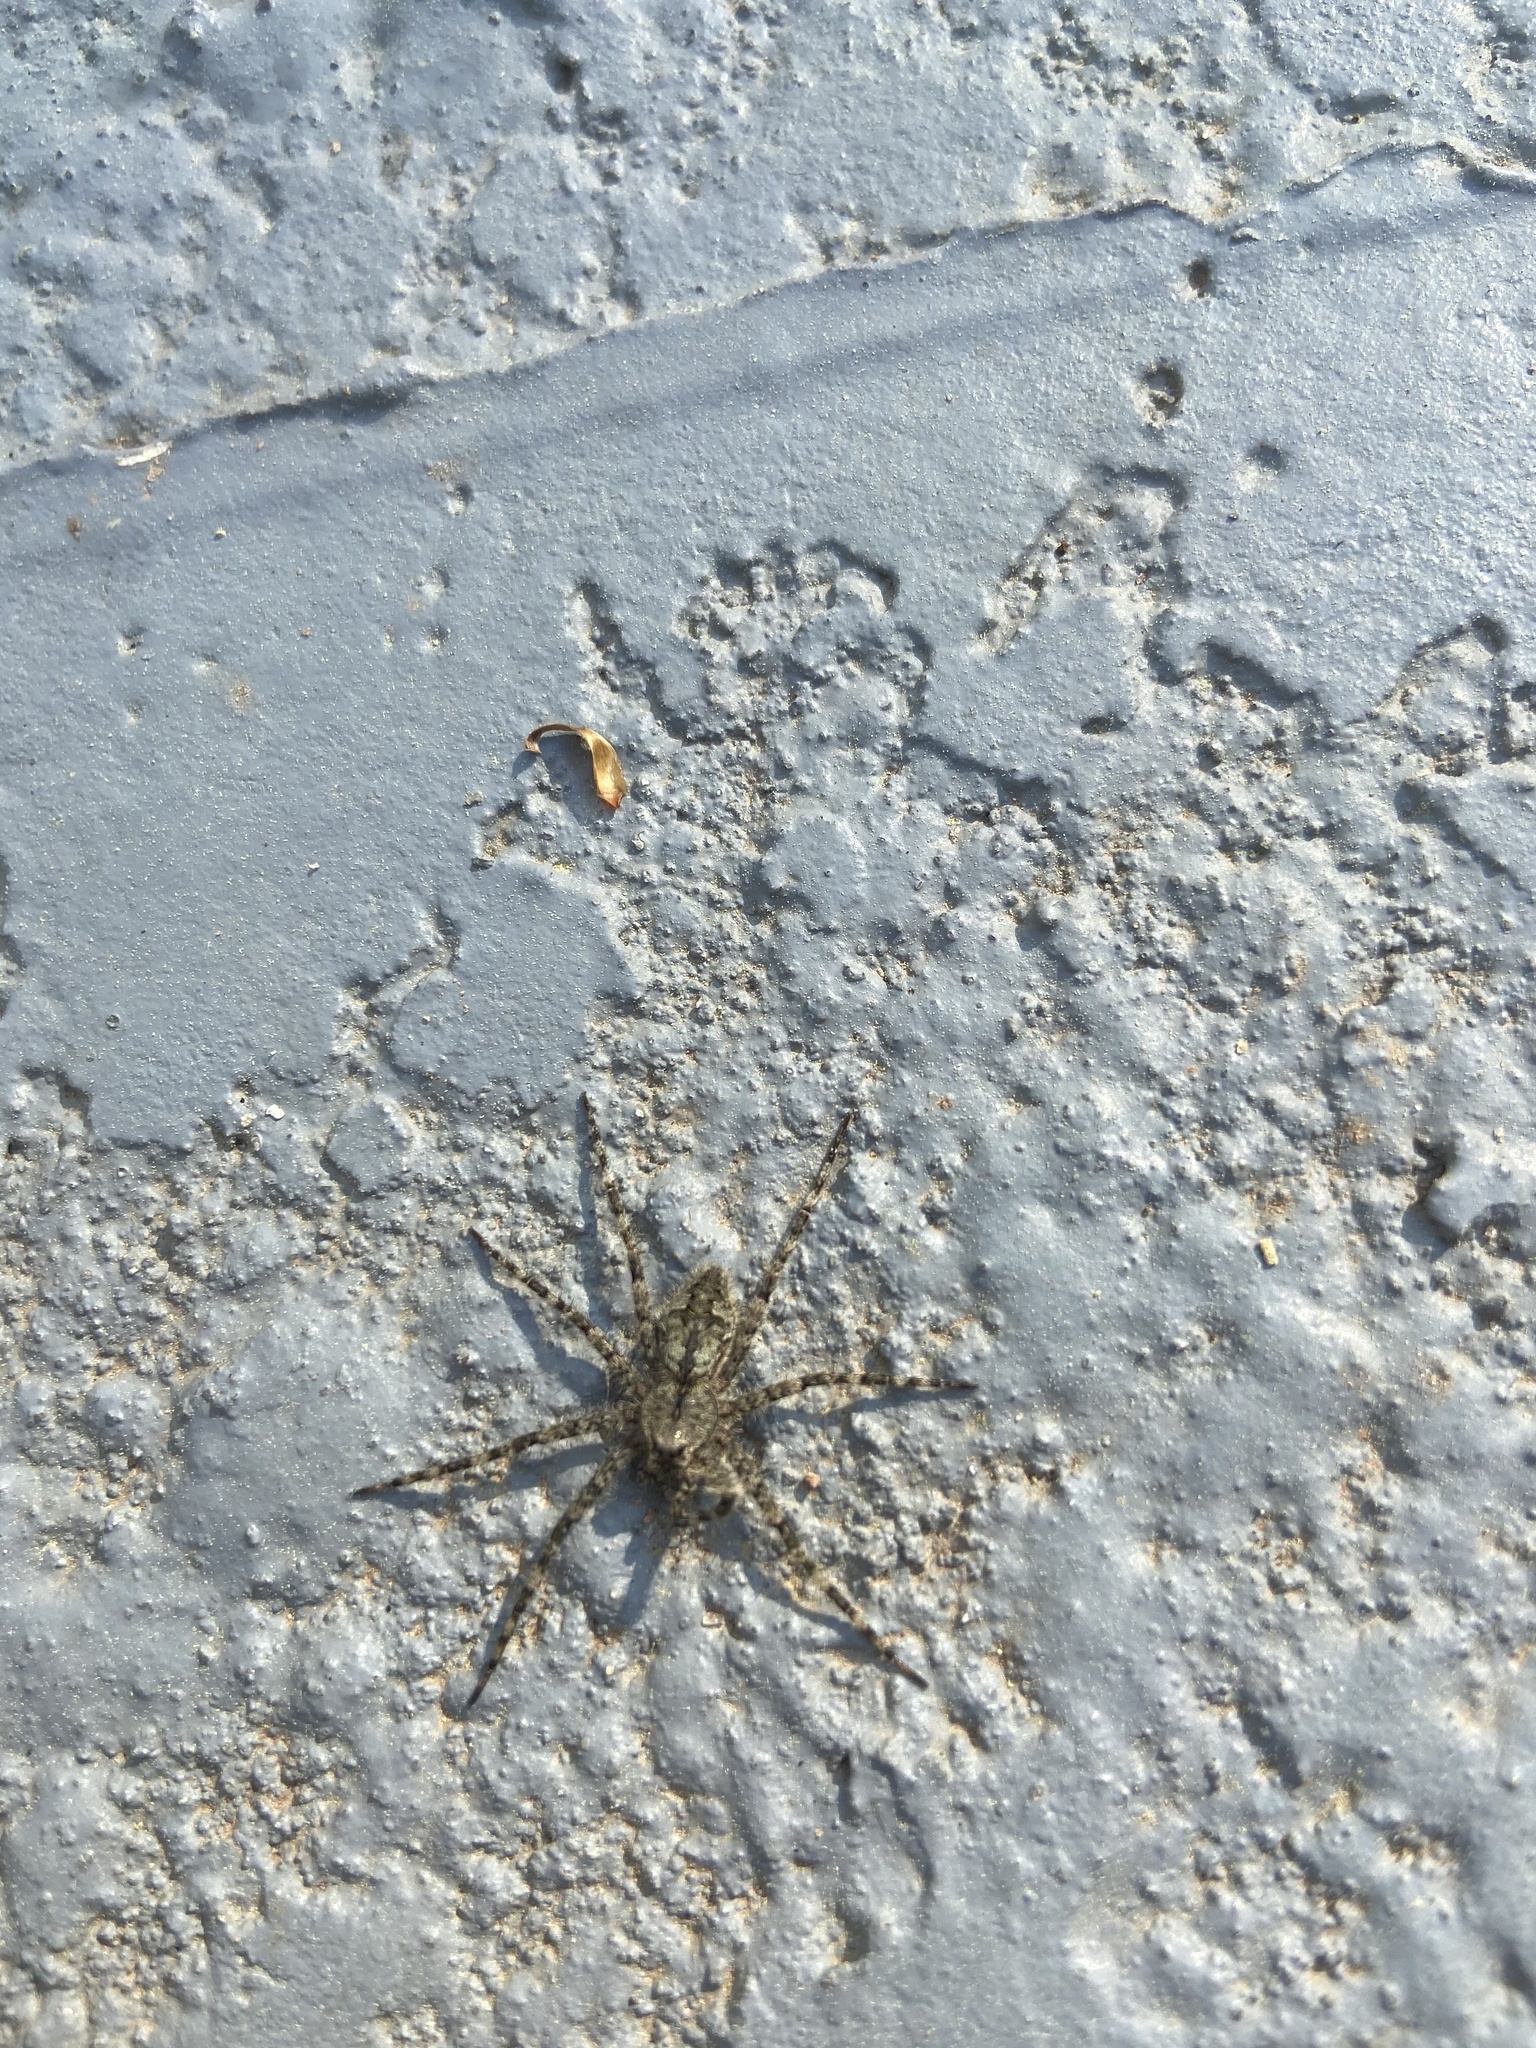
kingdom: Animalia
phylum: Arthropoda
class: Arachnida
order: Araneae
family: Pisauridae
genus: Dolomedes
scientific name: Dolomedes albineus
